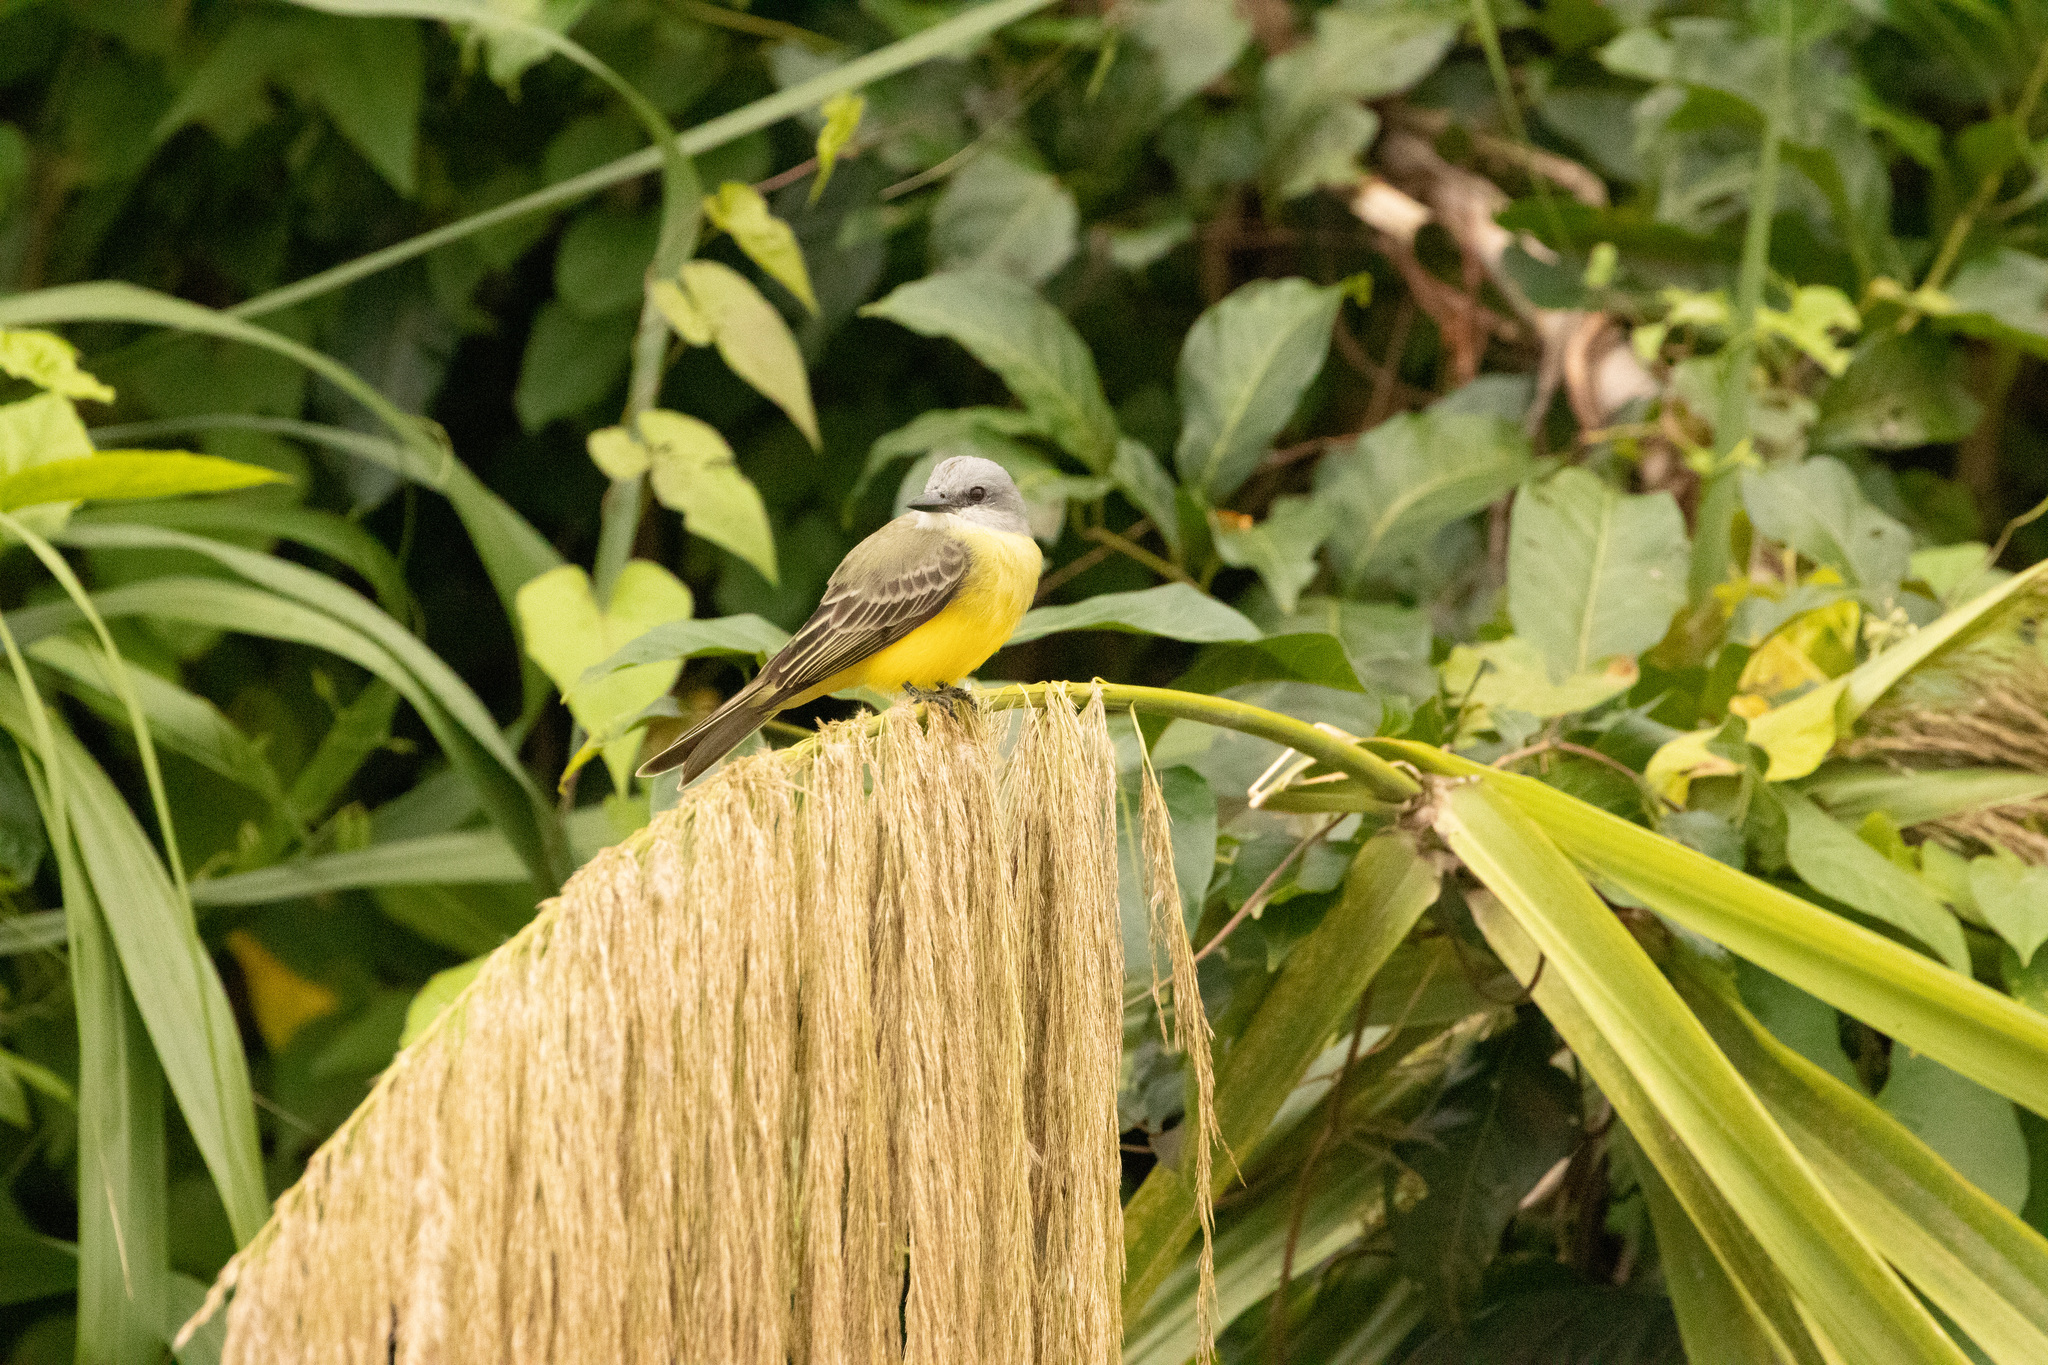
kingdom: Animalia
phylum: Chordata
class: Aves
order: Passeriformes
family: Tyrannidae
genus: Tyrannus
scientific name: Tyrannus melancholicus
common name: Tropical kingbird
